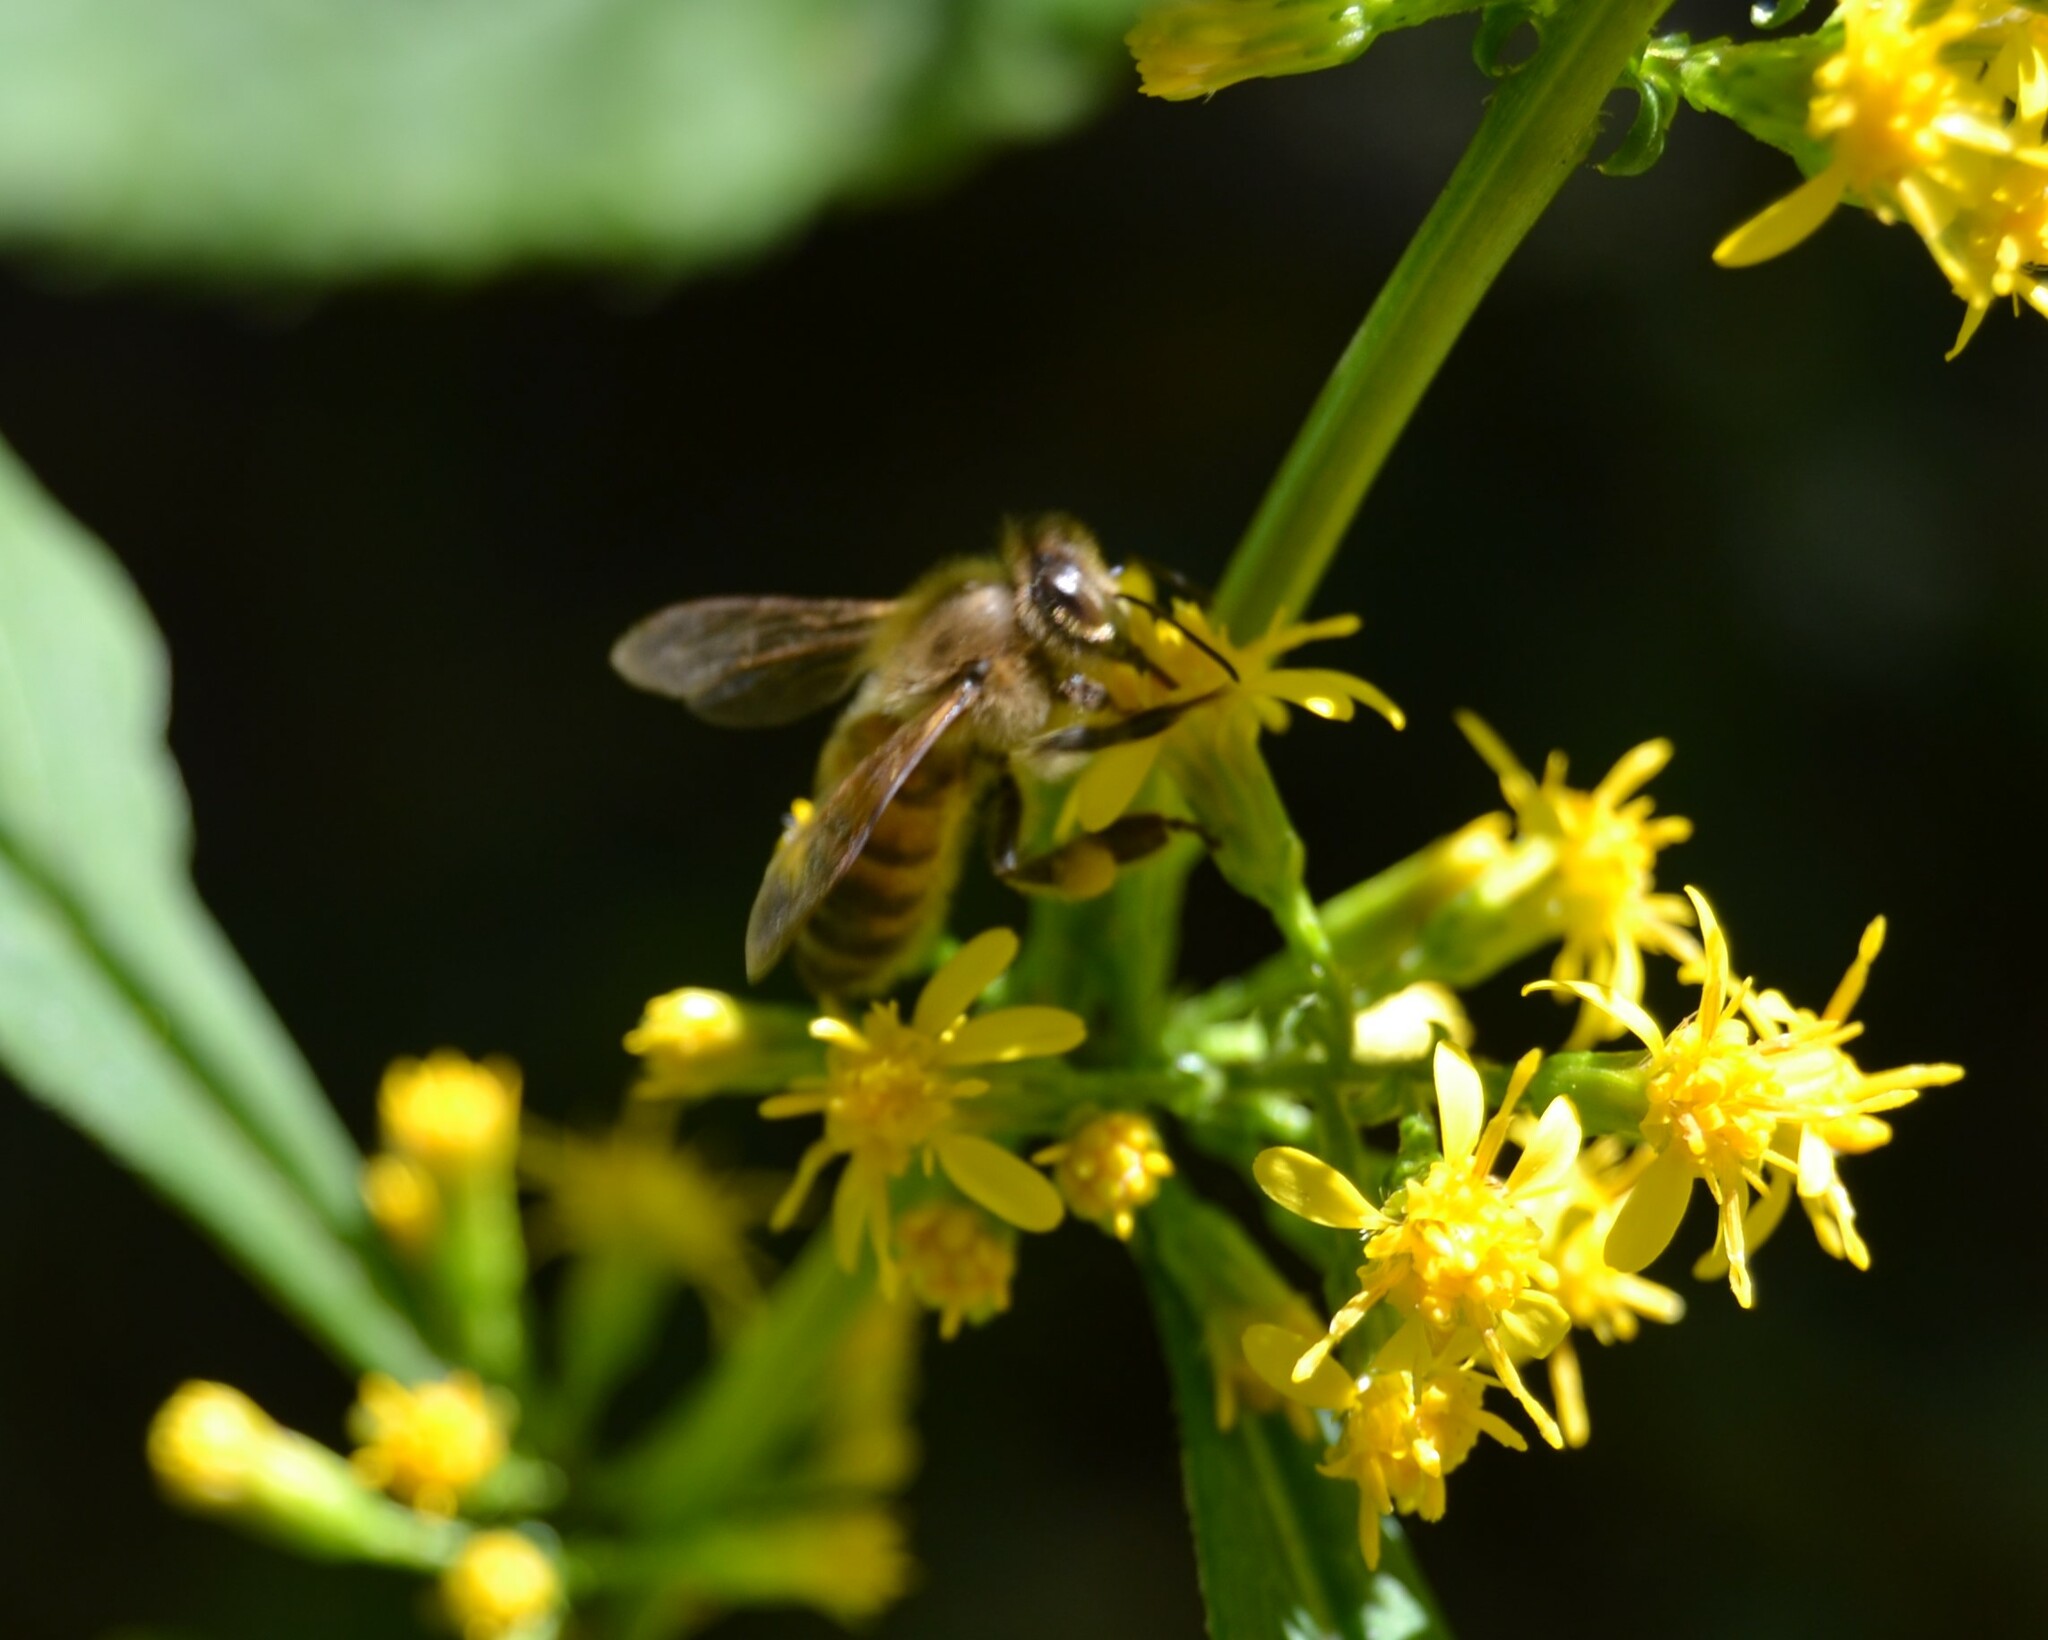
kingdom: Animalia
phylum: Arthropoda
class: Insecta
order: Hymenoptera
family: Apidae
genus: Apis
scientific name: Apis mellifera
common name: Honey bee
